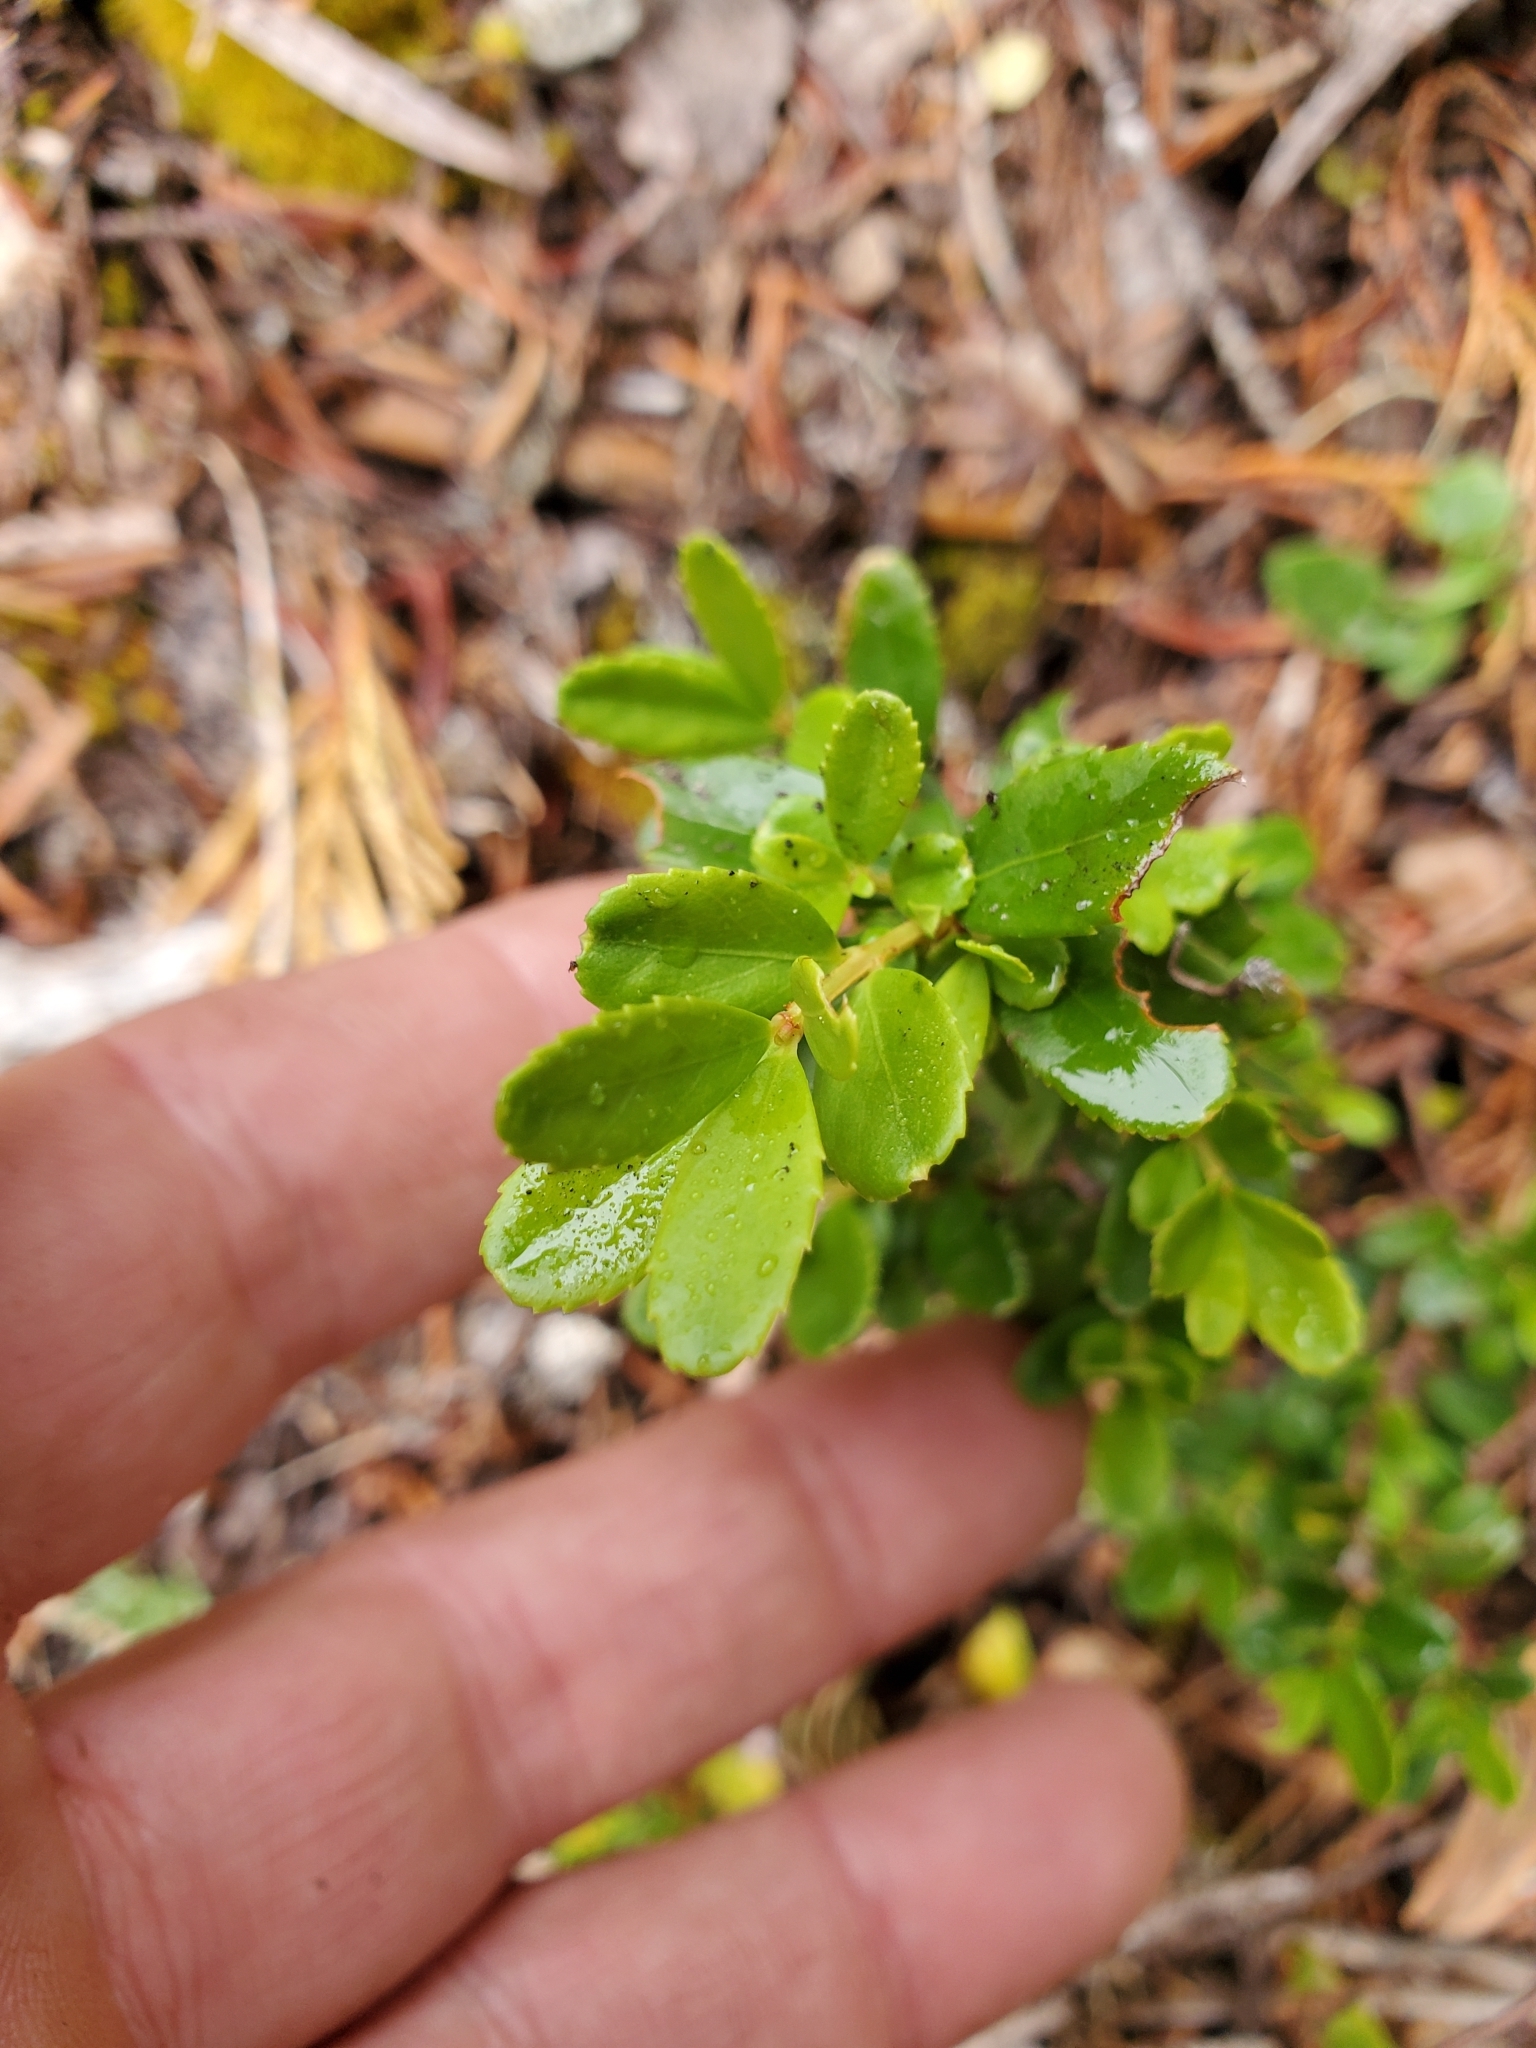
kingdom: Plantae
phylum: Tracheophyta
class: Magnoliopsida
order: Celastrales
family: Celastraceae
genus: Paxistima
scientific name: Paxistima myrsinites
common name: Mountain-lover
